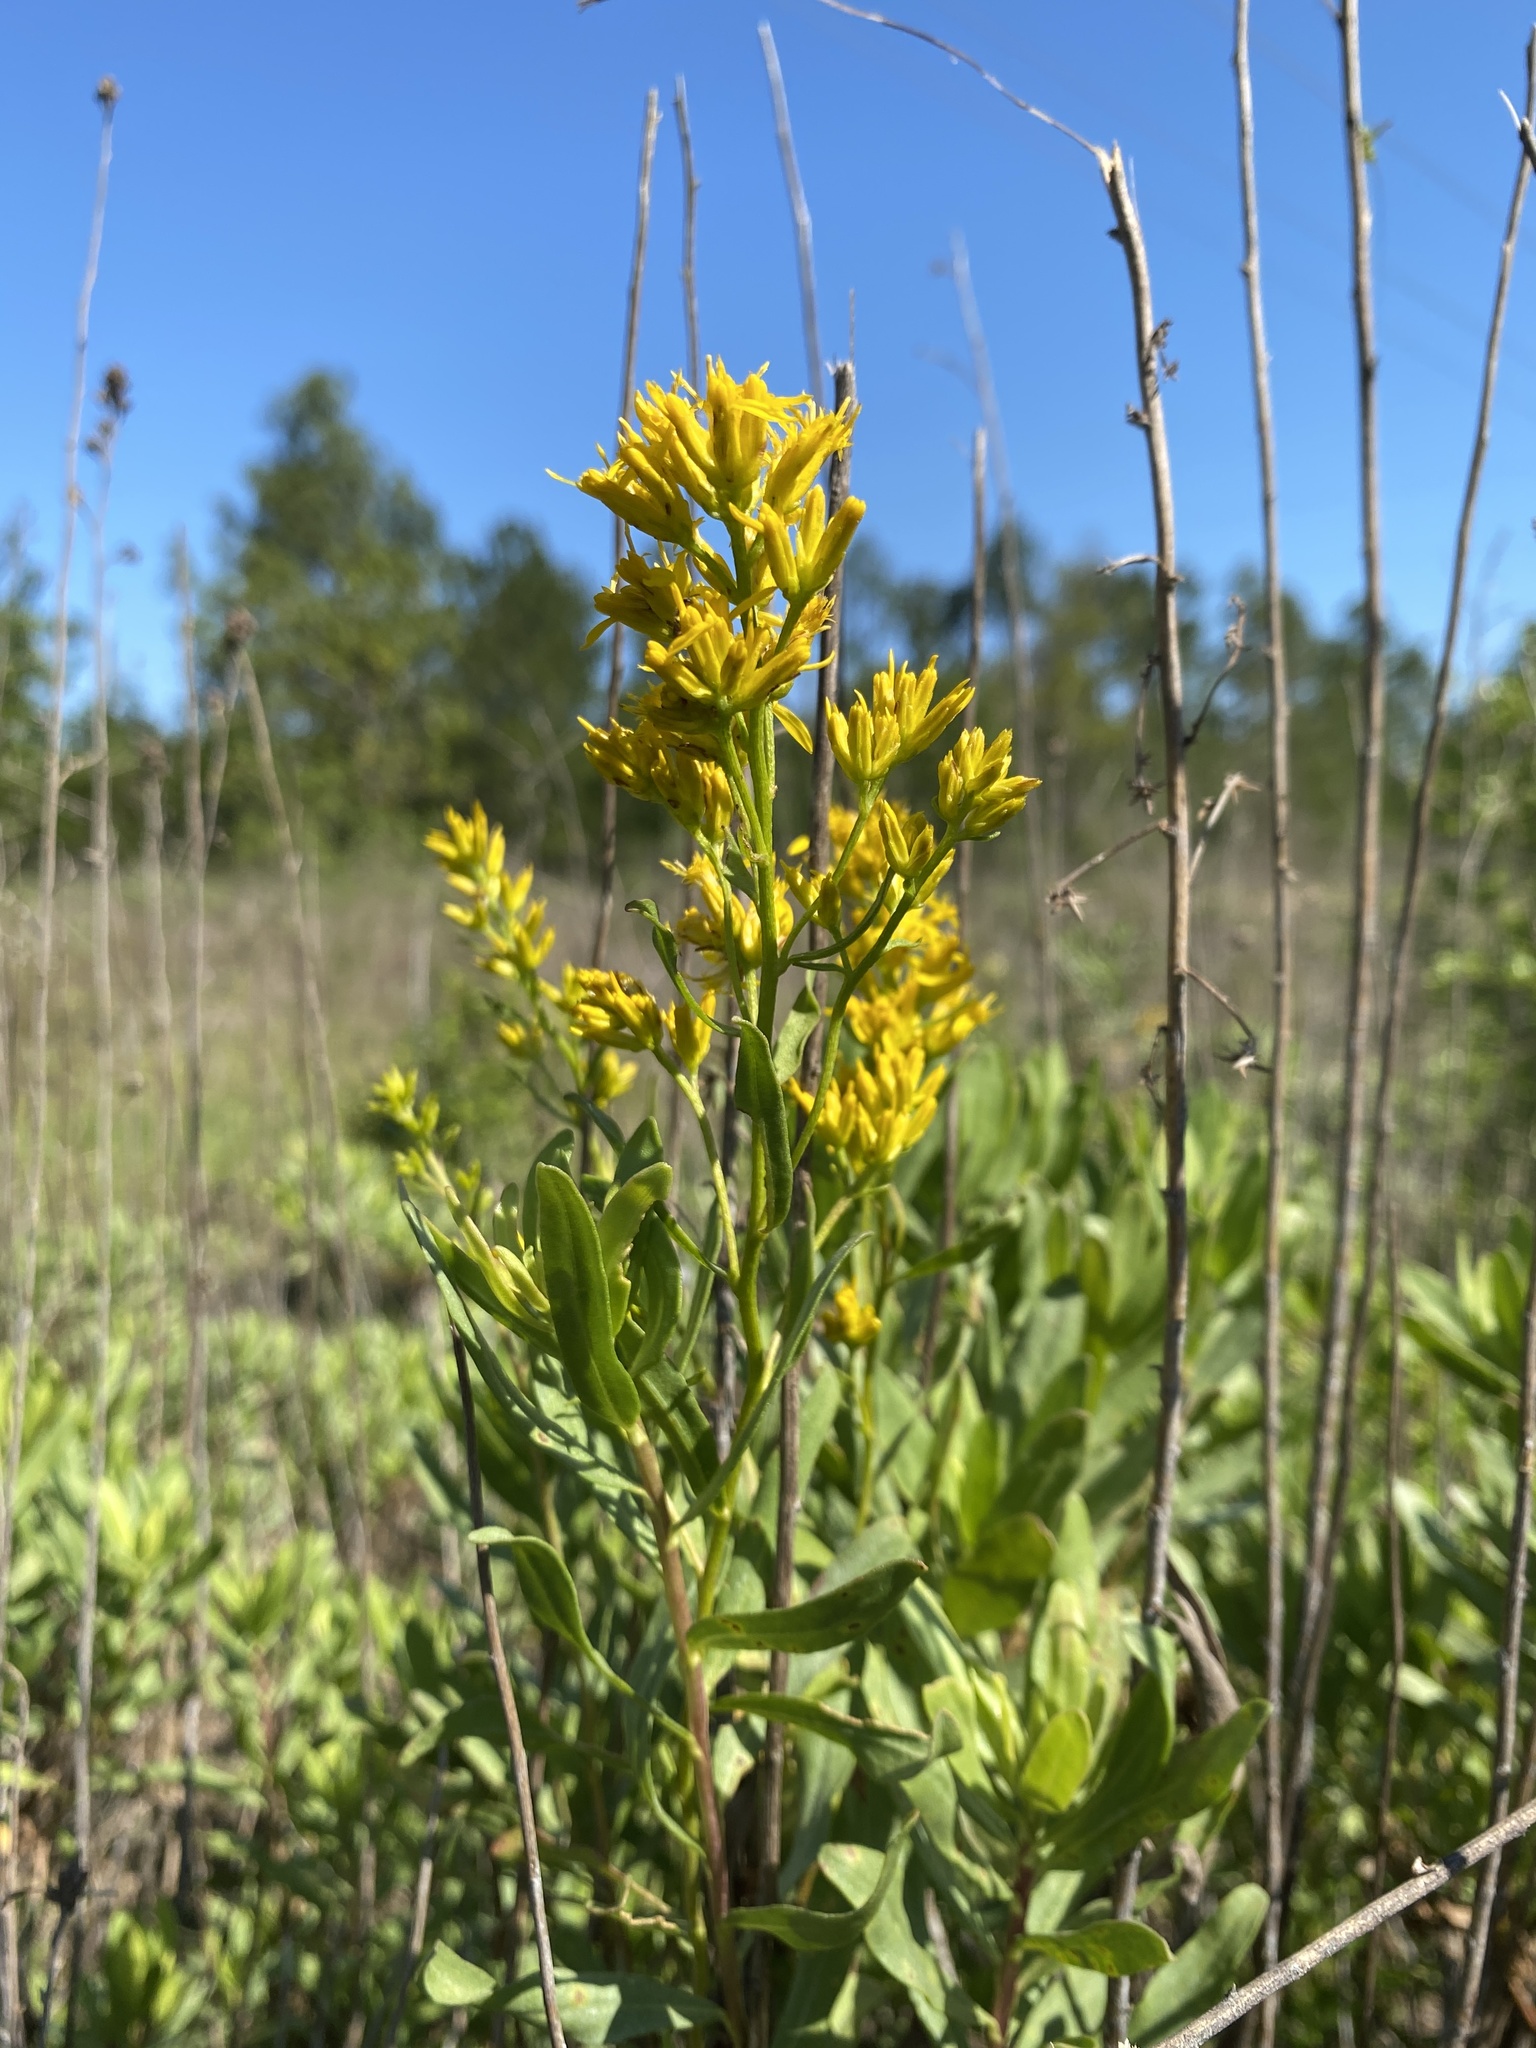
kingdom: Plantae
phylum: Tracheophyta
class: Magnoliopsida
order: Asterales
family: Asteraceae
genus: Chrysoma
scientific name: Chrysoma pauciflosculosa
